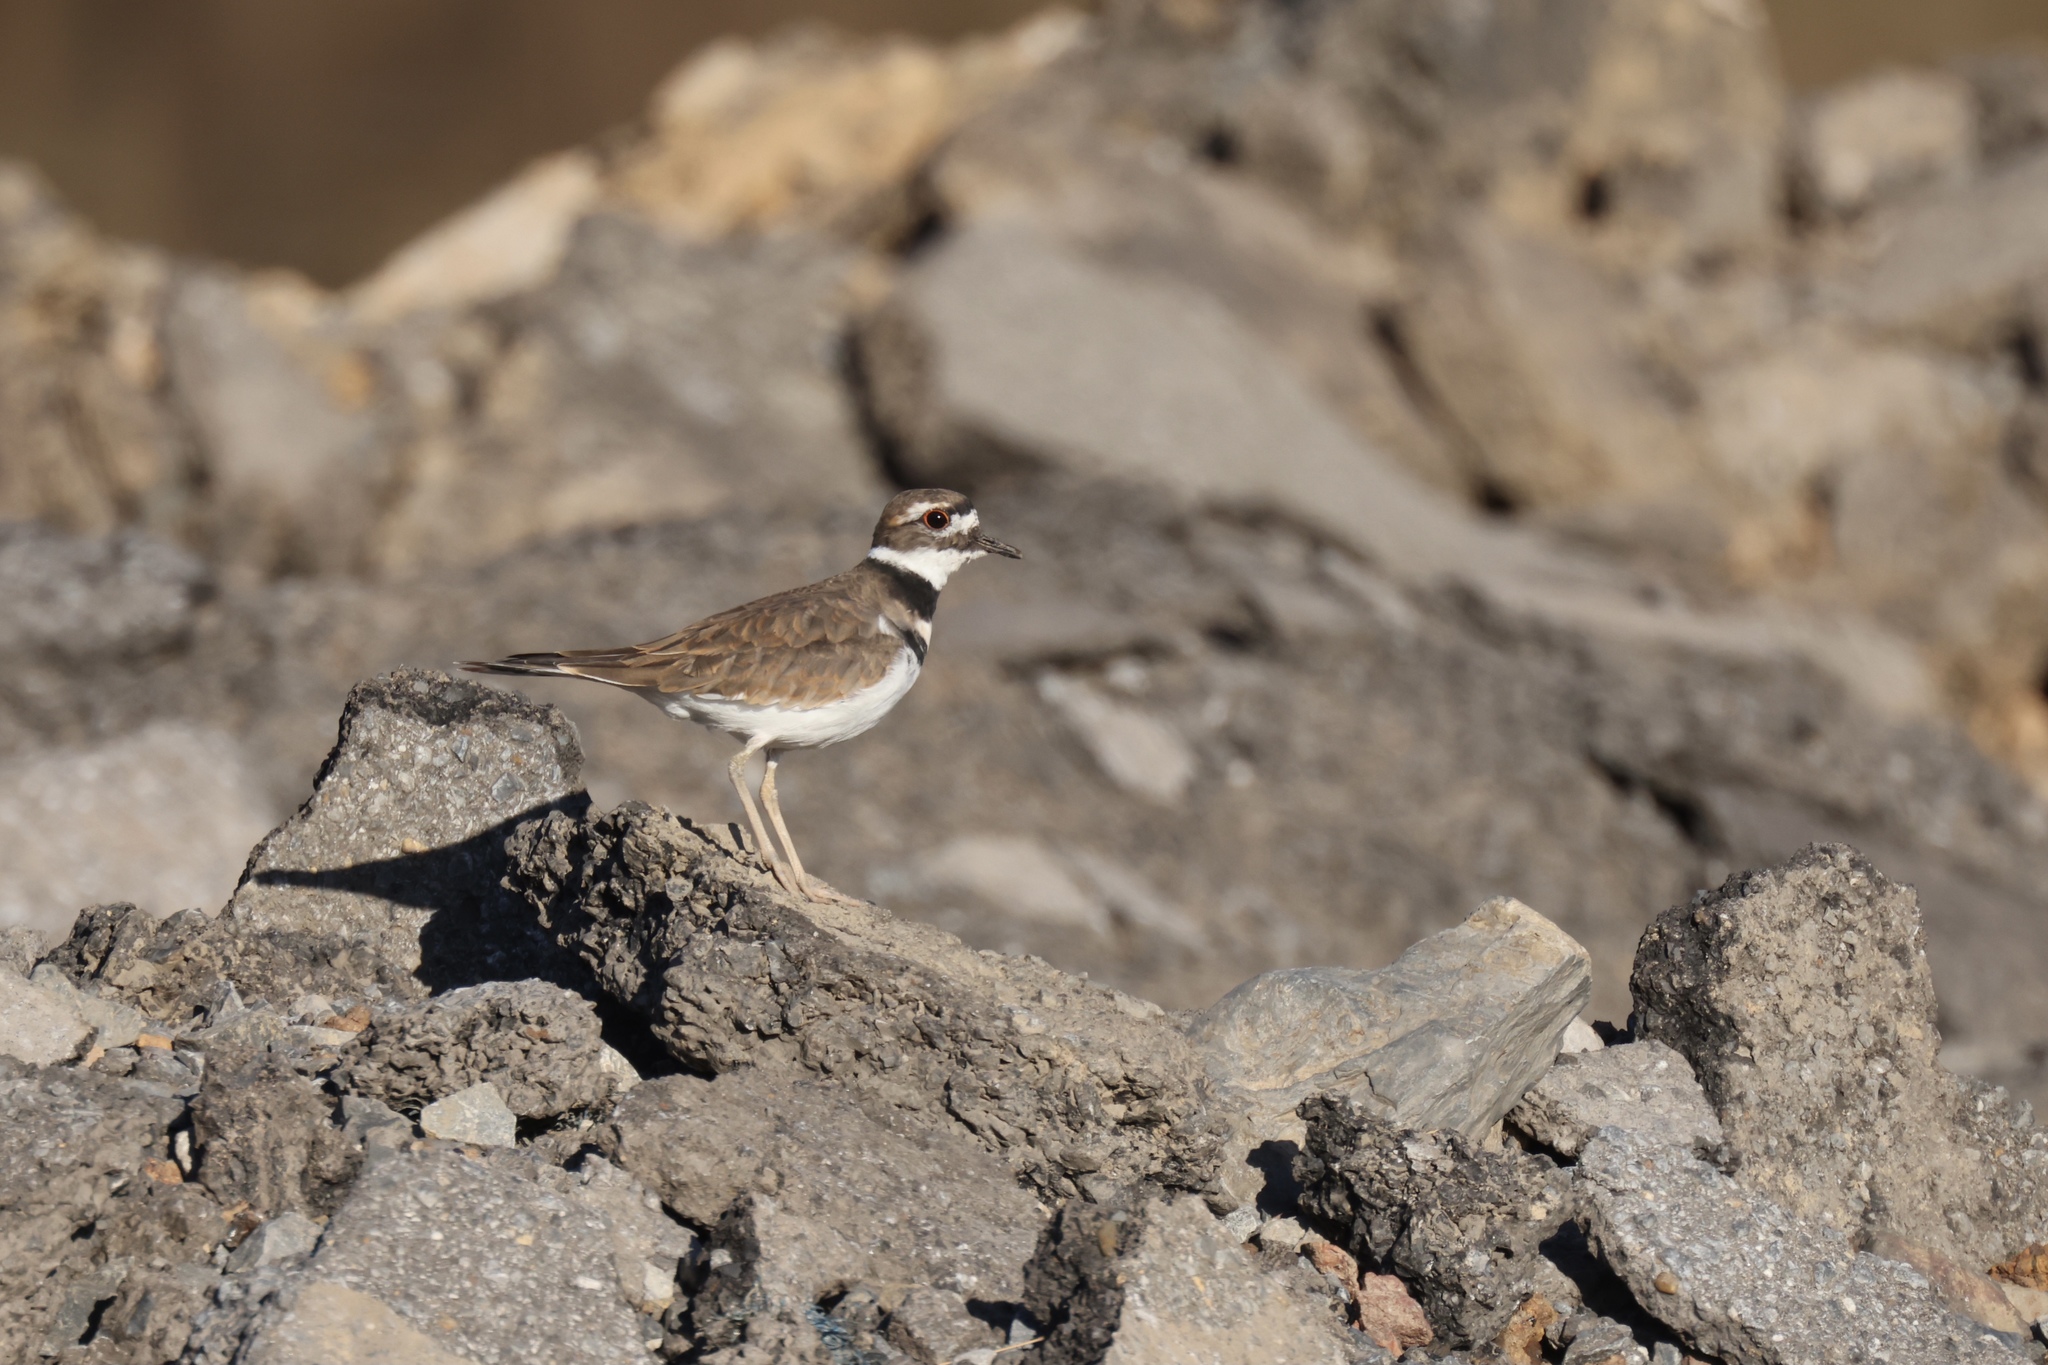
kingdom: Animalia
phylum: Chordata
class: Aves
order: Charadriiformes
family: Charadriidae
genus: Charadrius
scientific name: Charadrius vociferus
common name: Killdeer
